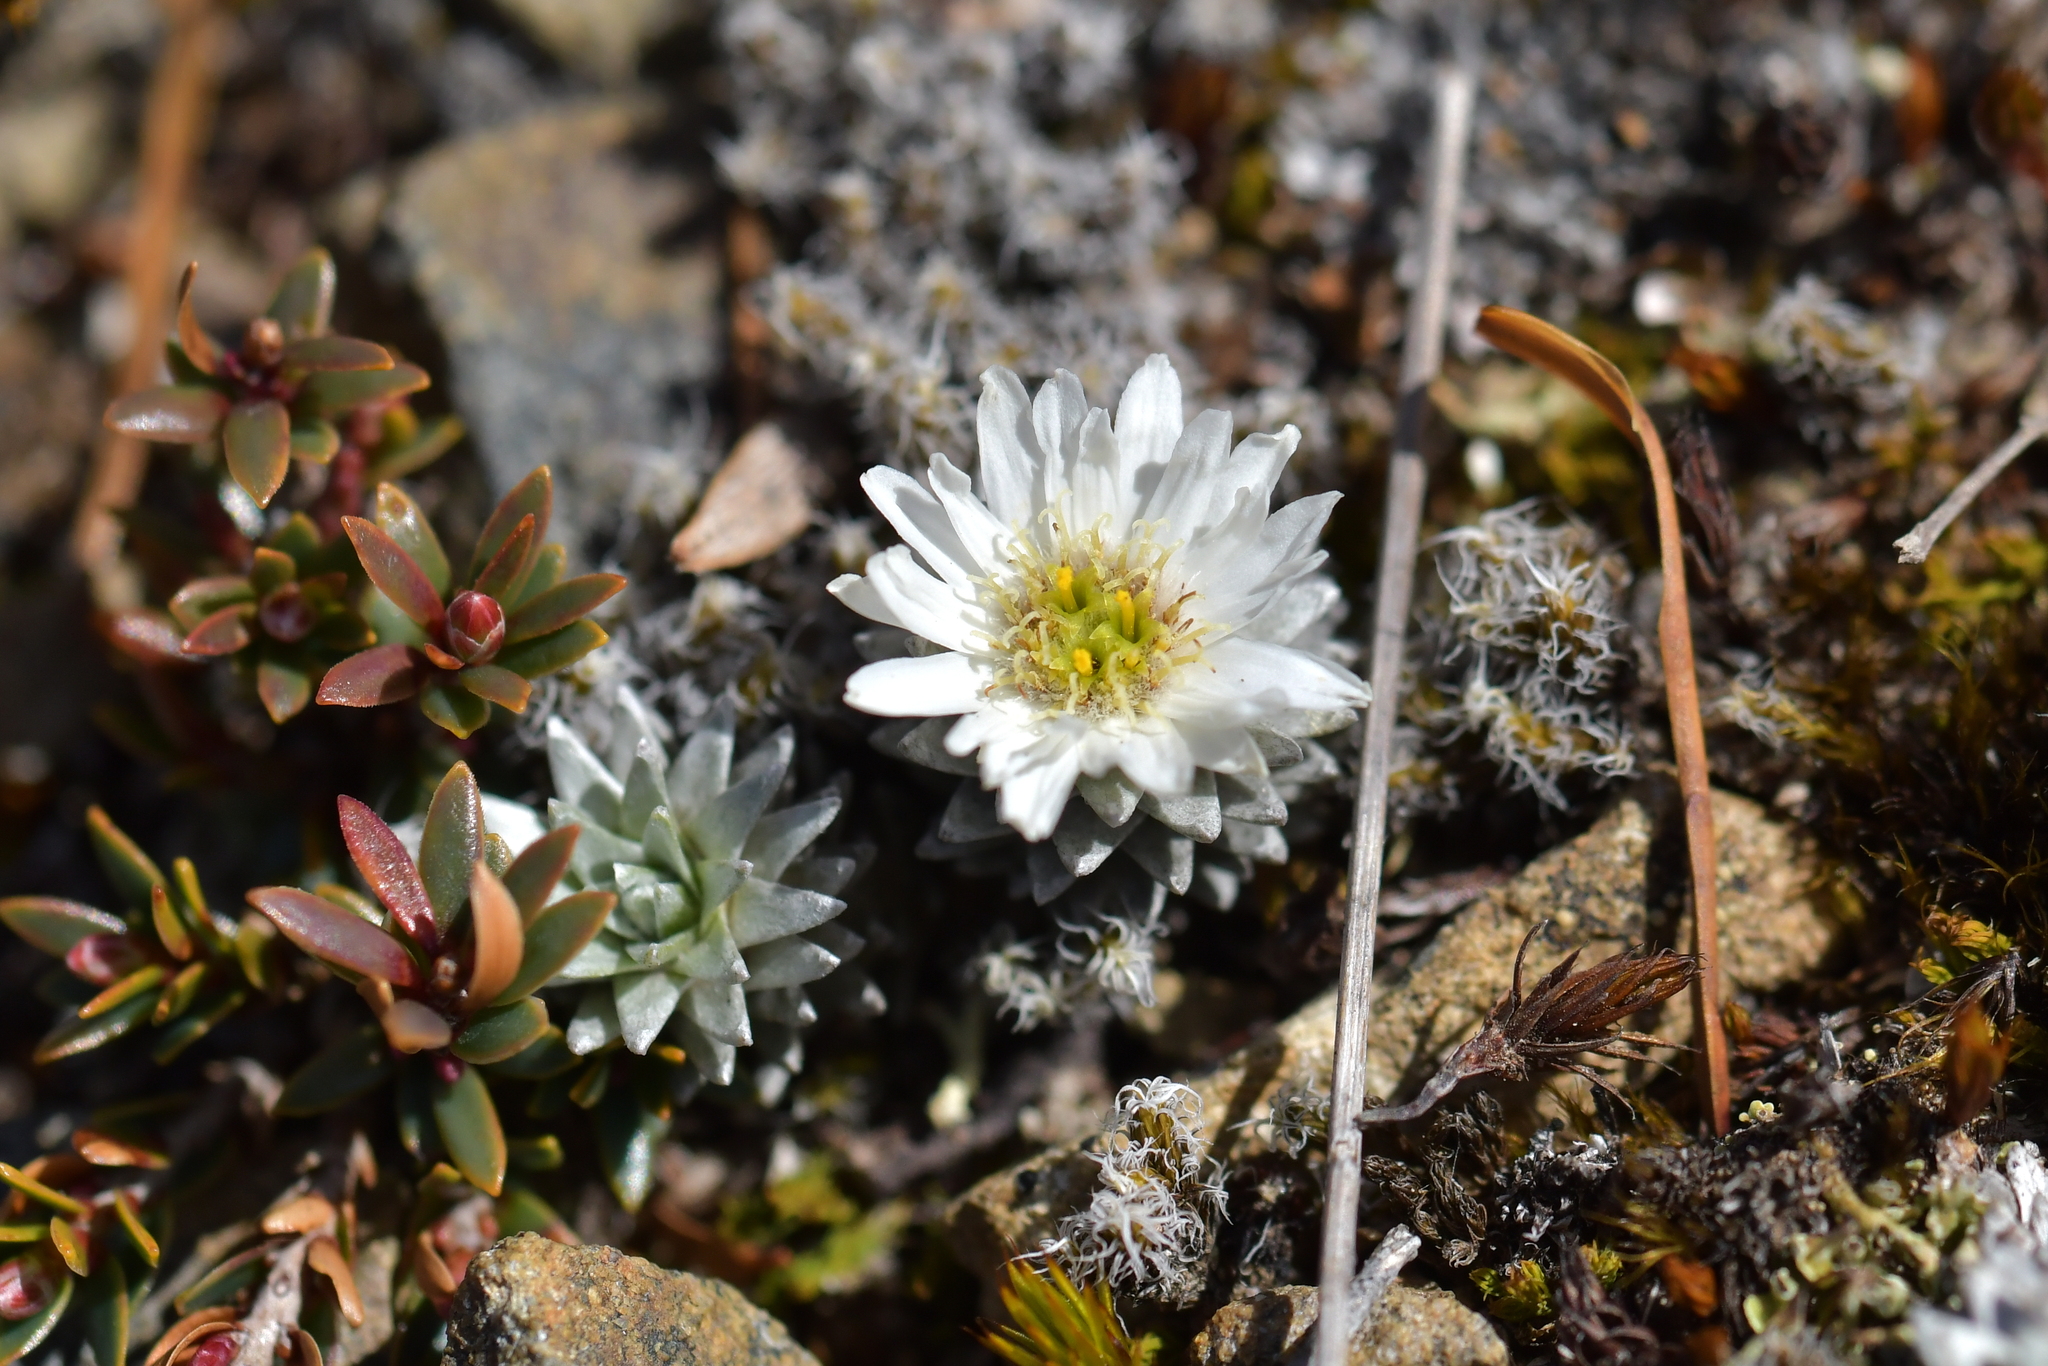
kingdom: Plantae
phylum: Tracheophyta
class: Magnoliopsida
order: Asterales
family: Asteraceae
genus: Raoulia
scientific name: Raoulia grandiflora
